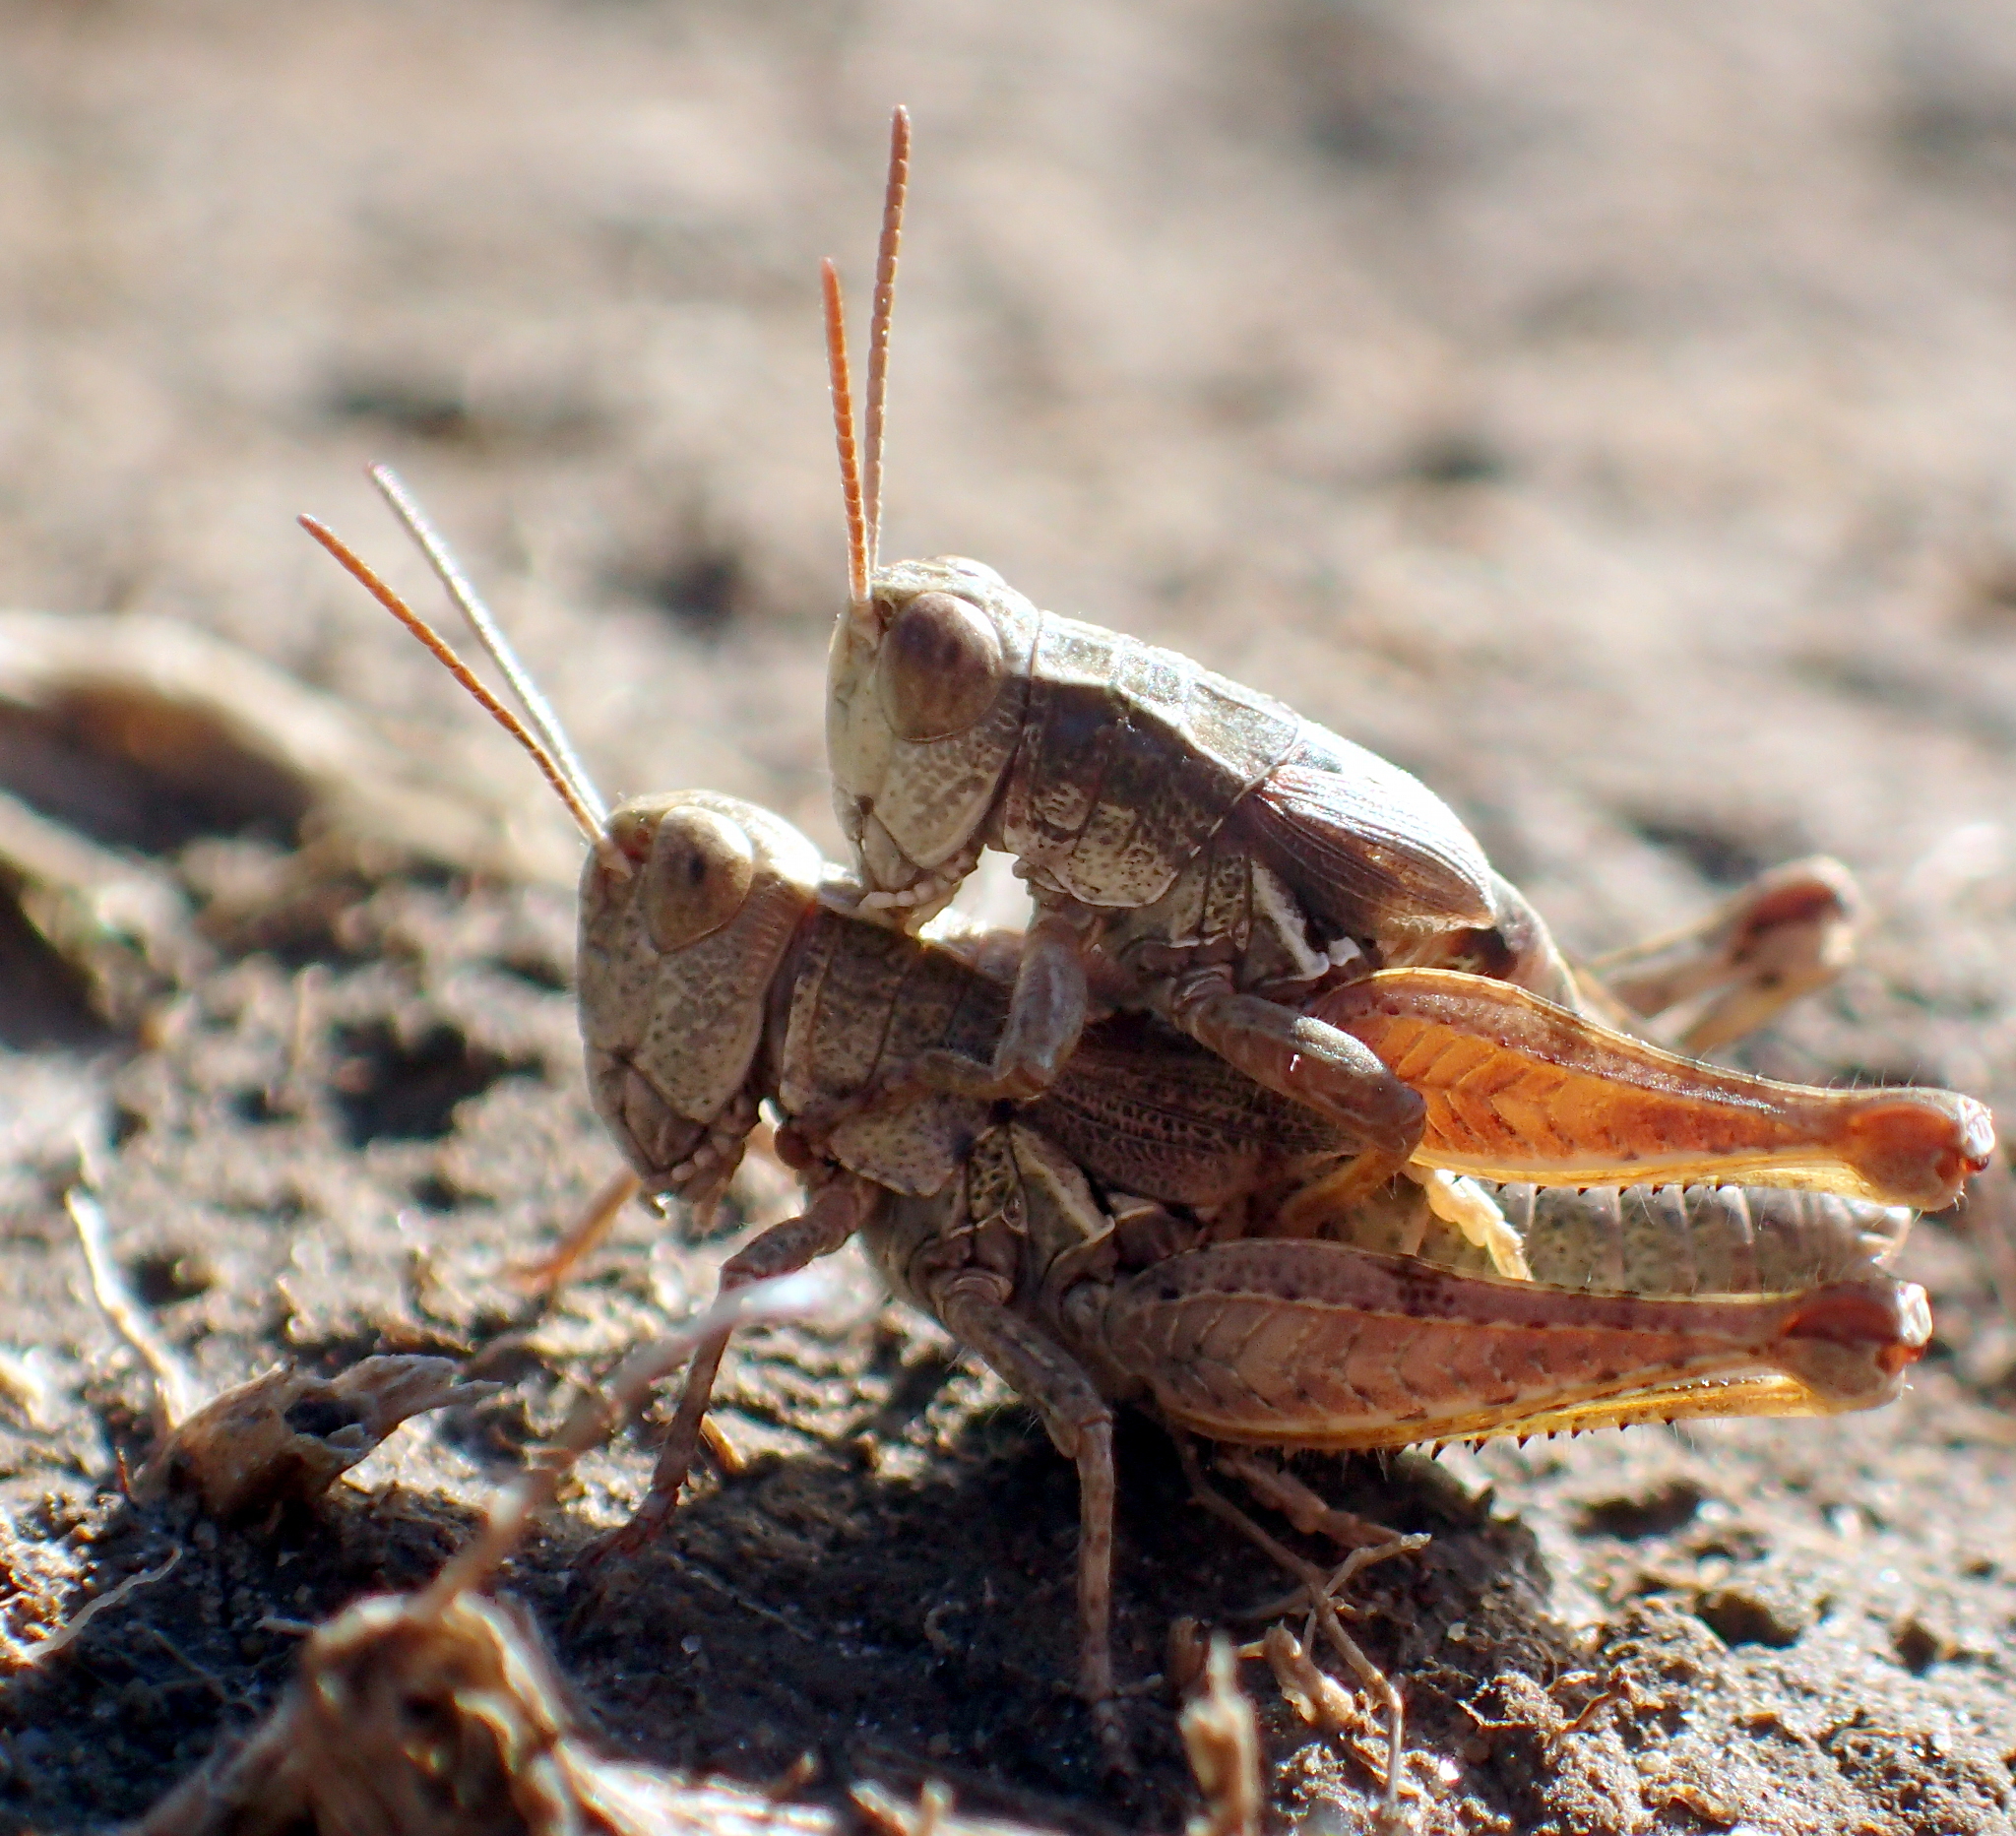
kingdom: Animalia
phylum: Arthropoda
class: Insecta
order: Orthoptera
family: Acrididae
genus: Phaulacridium
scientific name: Phaulacridium marginale
